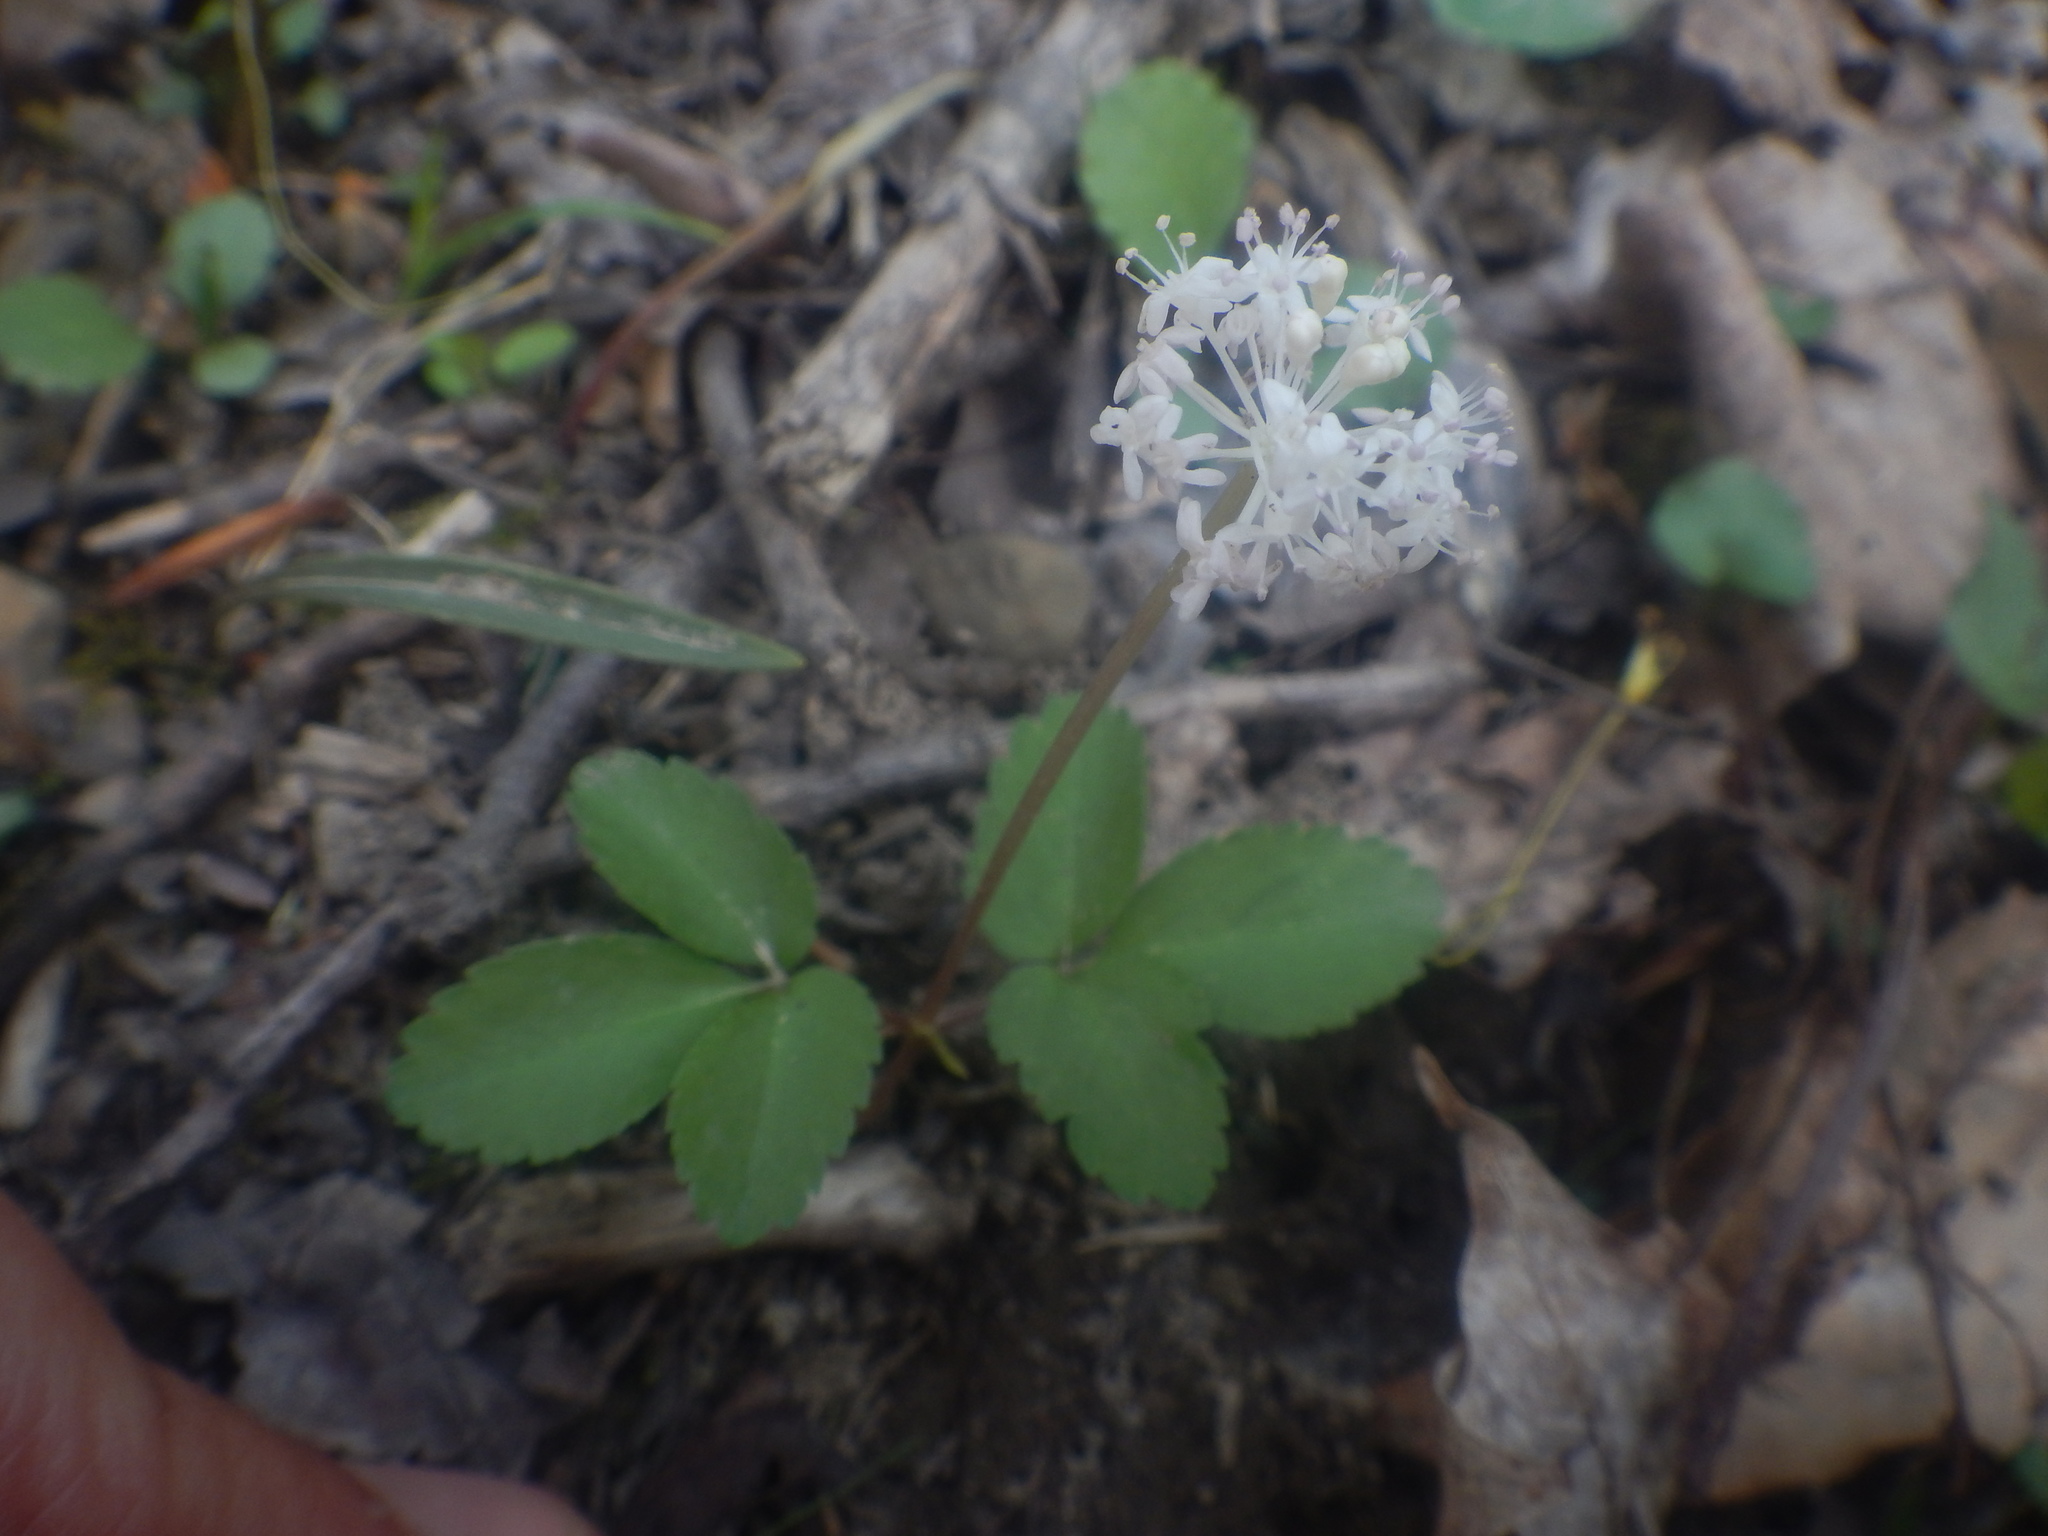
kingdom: Plantae
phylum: Tracheophyta
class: Magnoliopsida
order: Apiales
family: Araliaceae
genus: Panax
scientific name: Panax trifolius
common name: Dwarf ginseng
